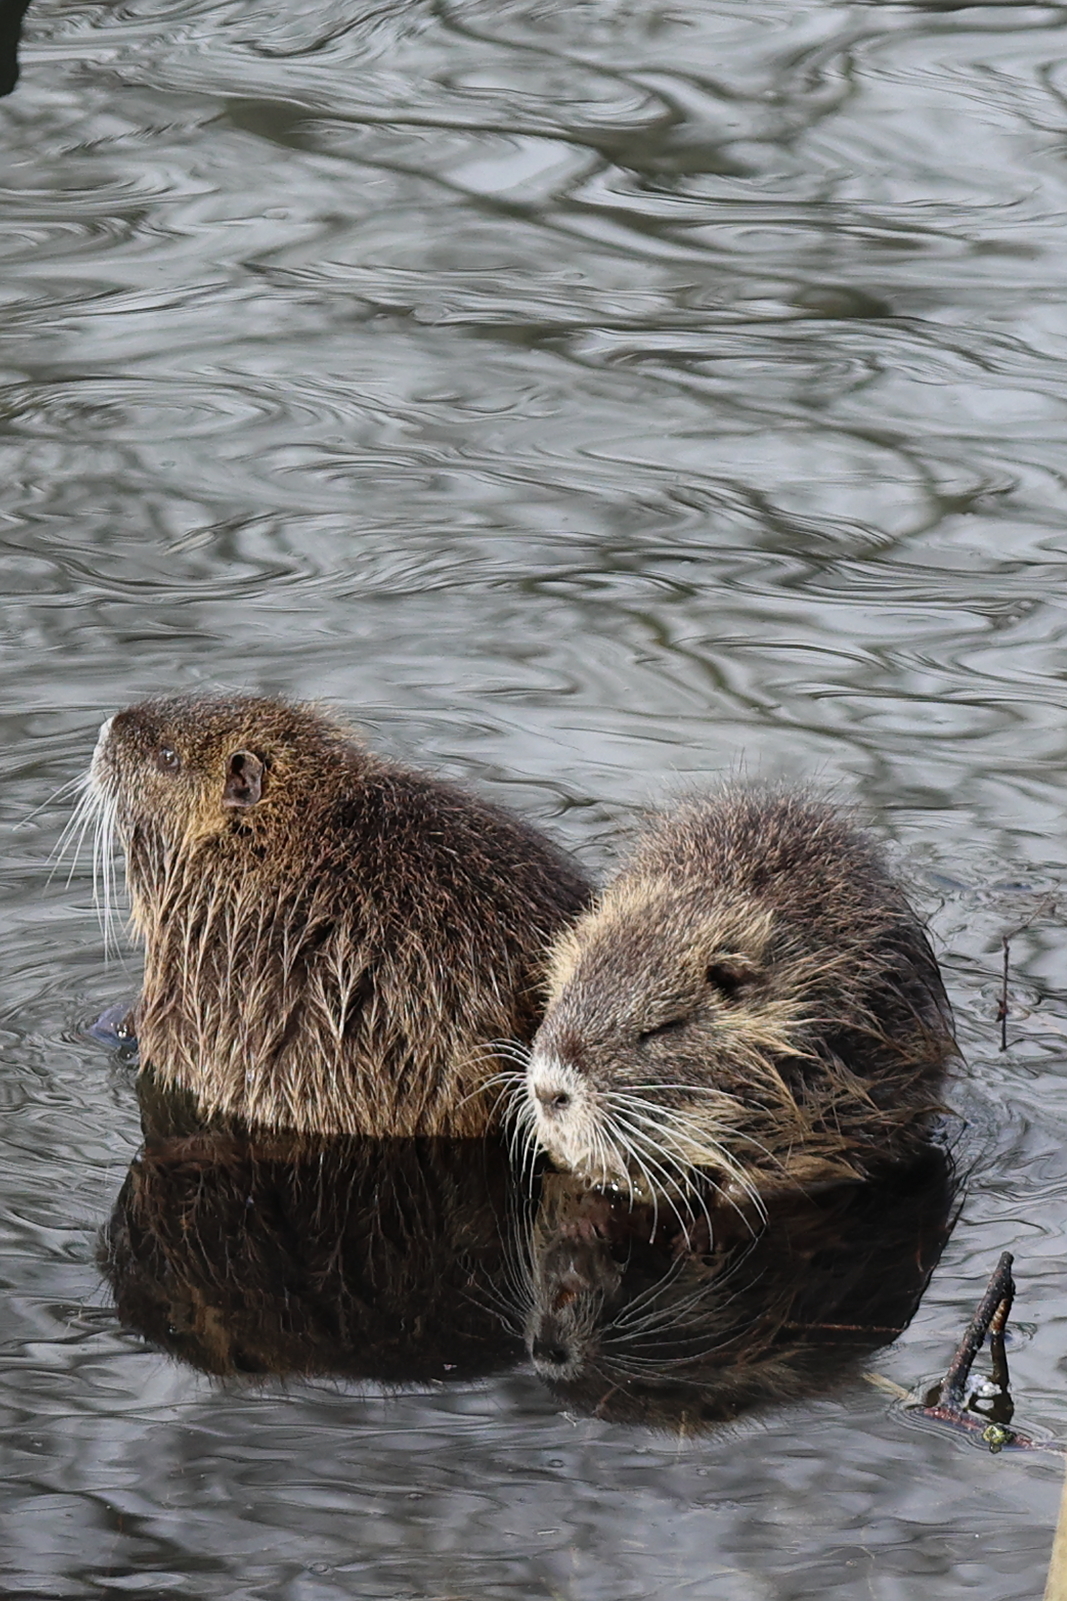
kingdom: Animalia
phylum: Chordata
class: Mammalia
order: Rodentia
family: Myocastoridae
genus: Myocastor
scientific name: Myocastor coypus
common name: Coypu
